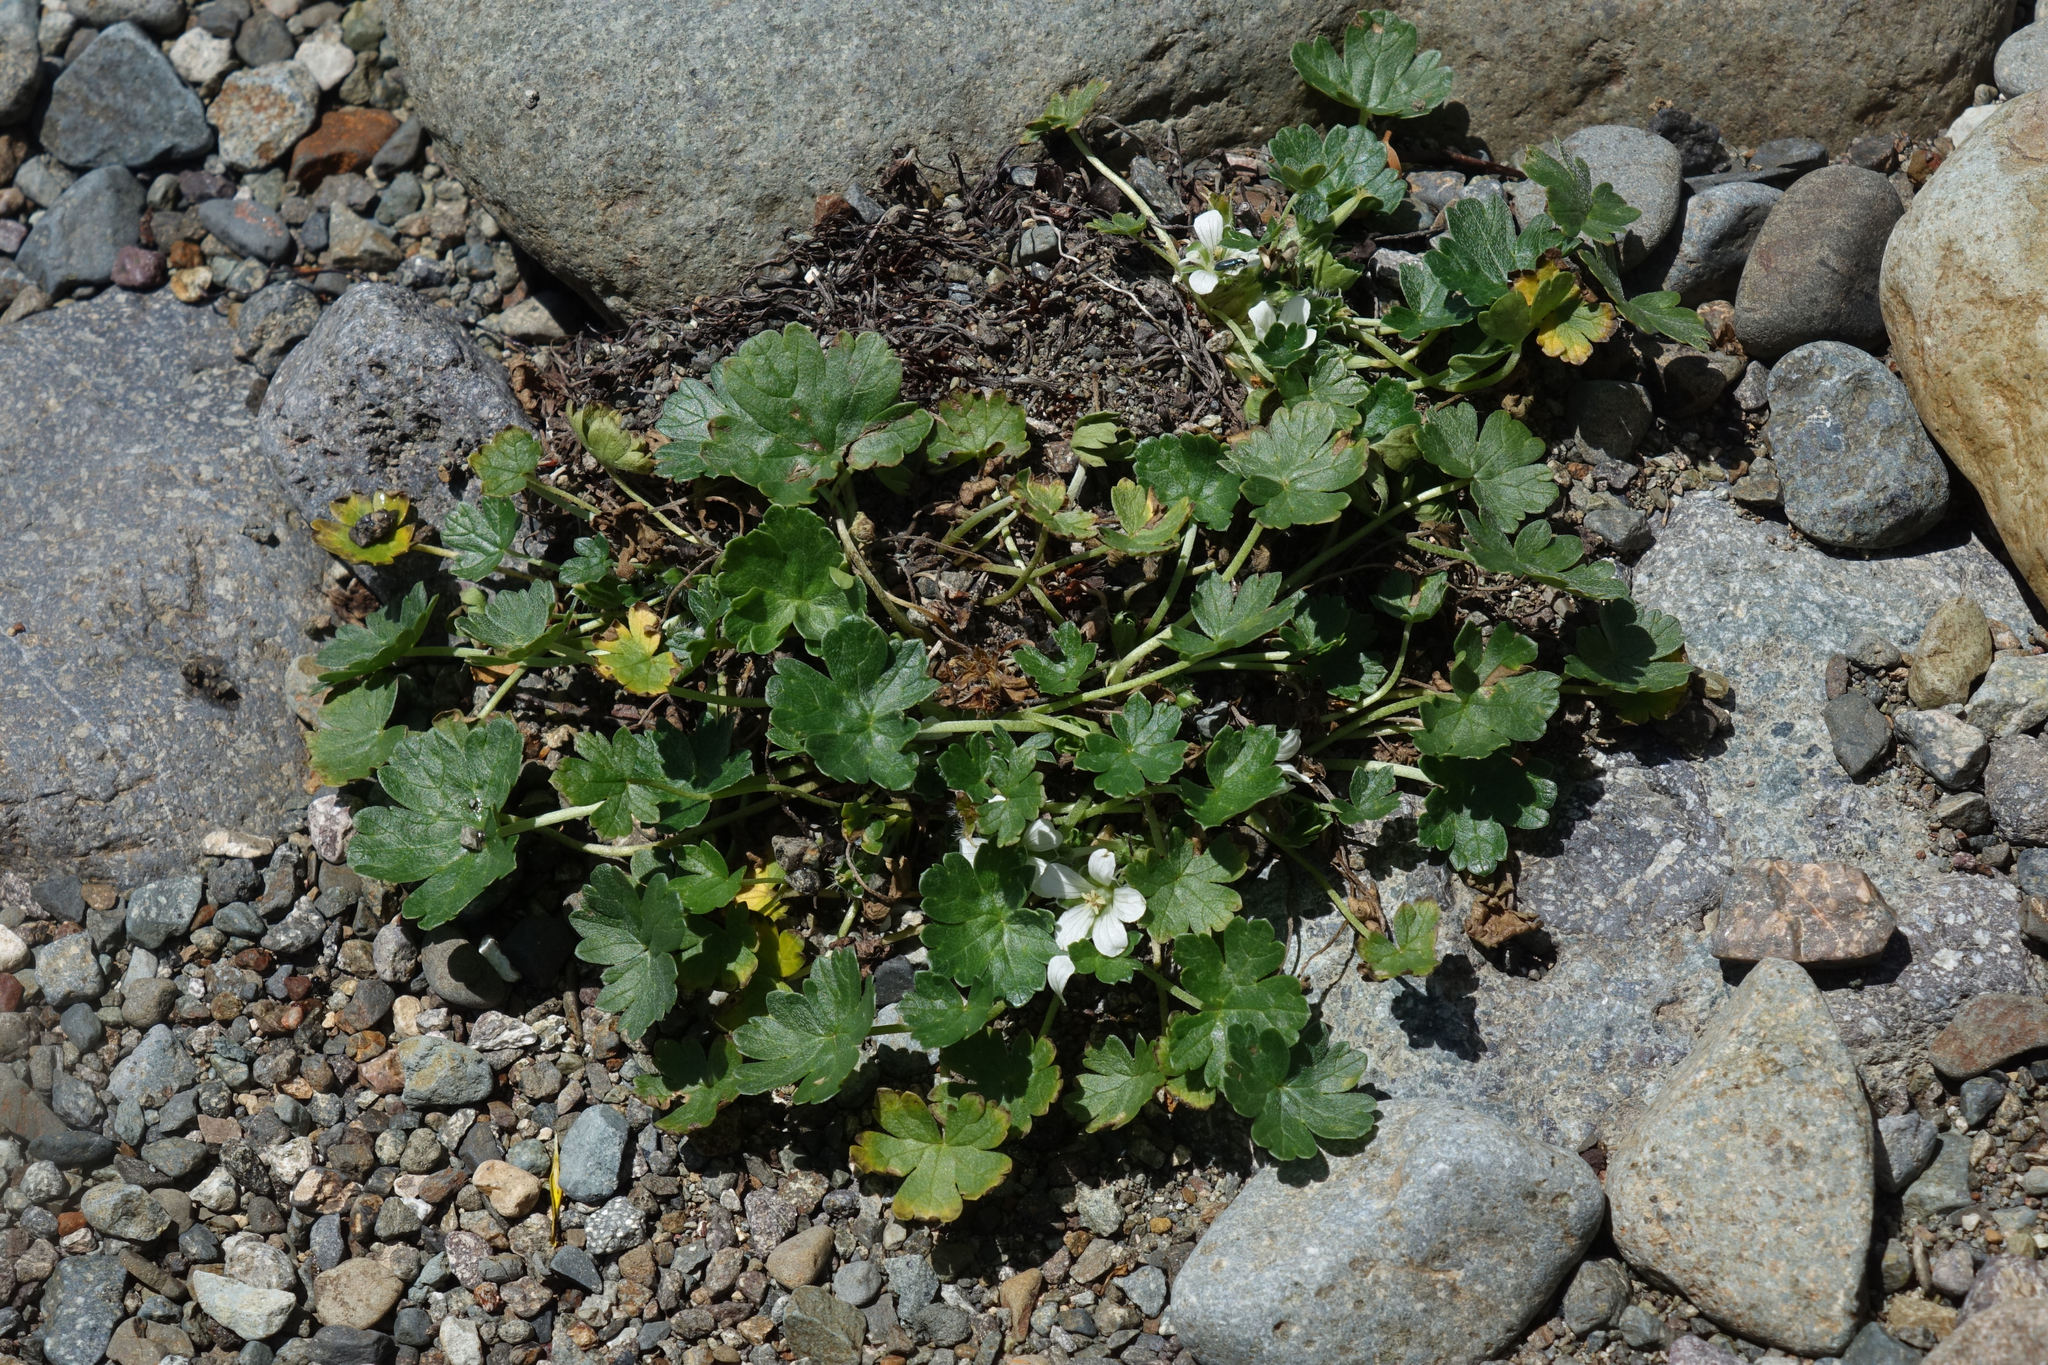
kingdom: Plantae
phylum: Tracheophyta
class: Magnoliopsida
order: Geraniales
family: Geraniaceae
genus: Geranium
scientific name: Geranium brevicaule
